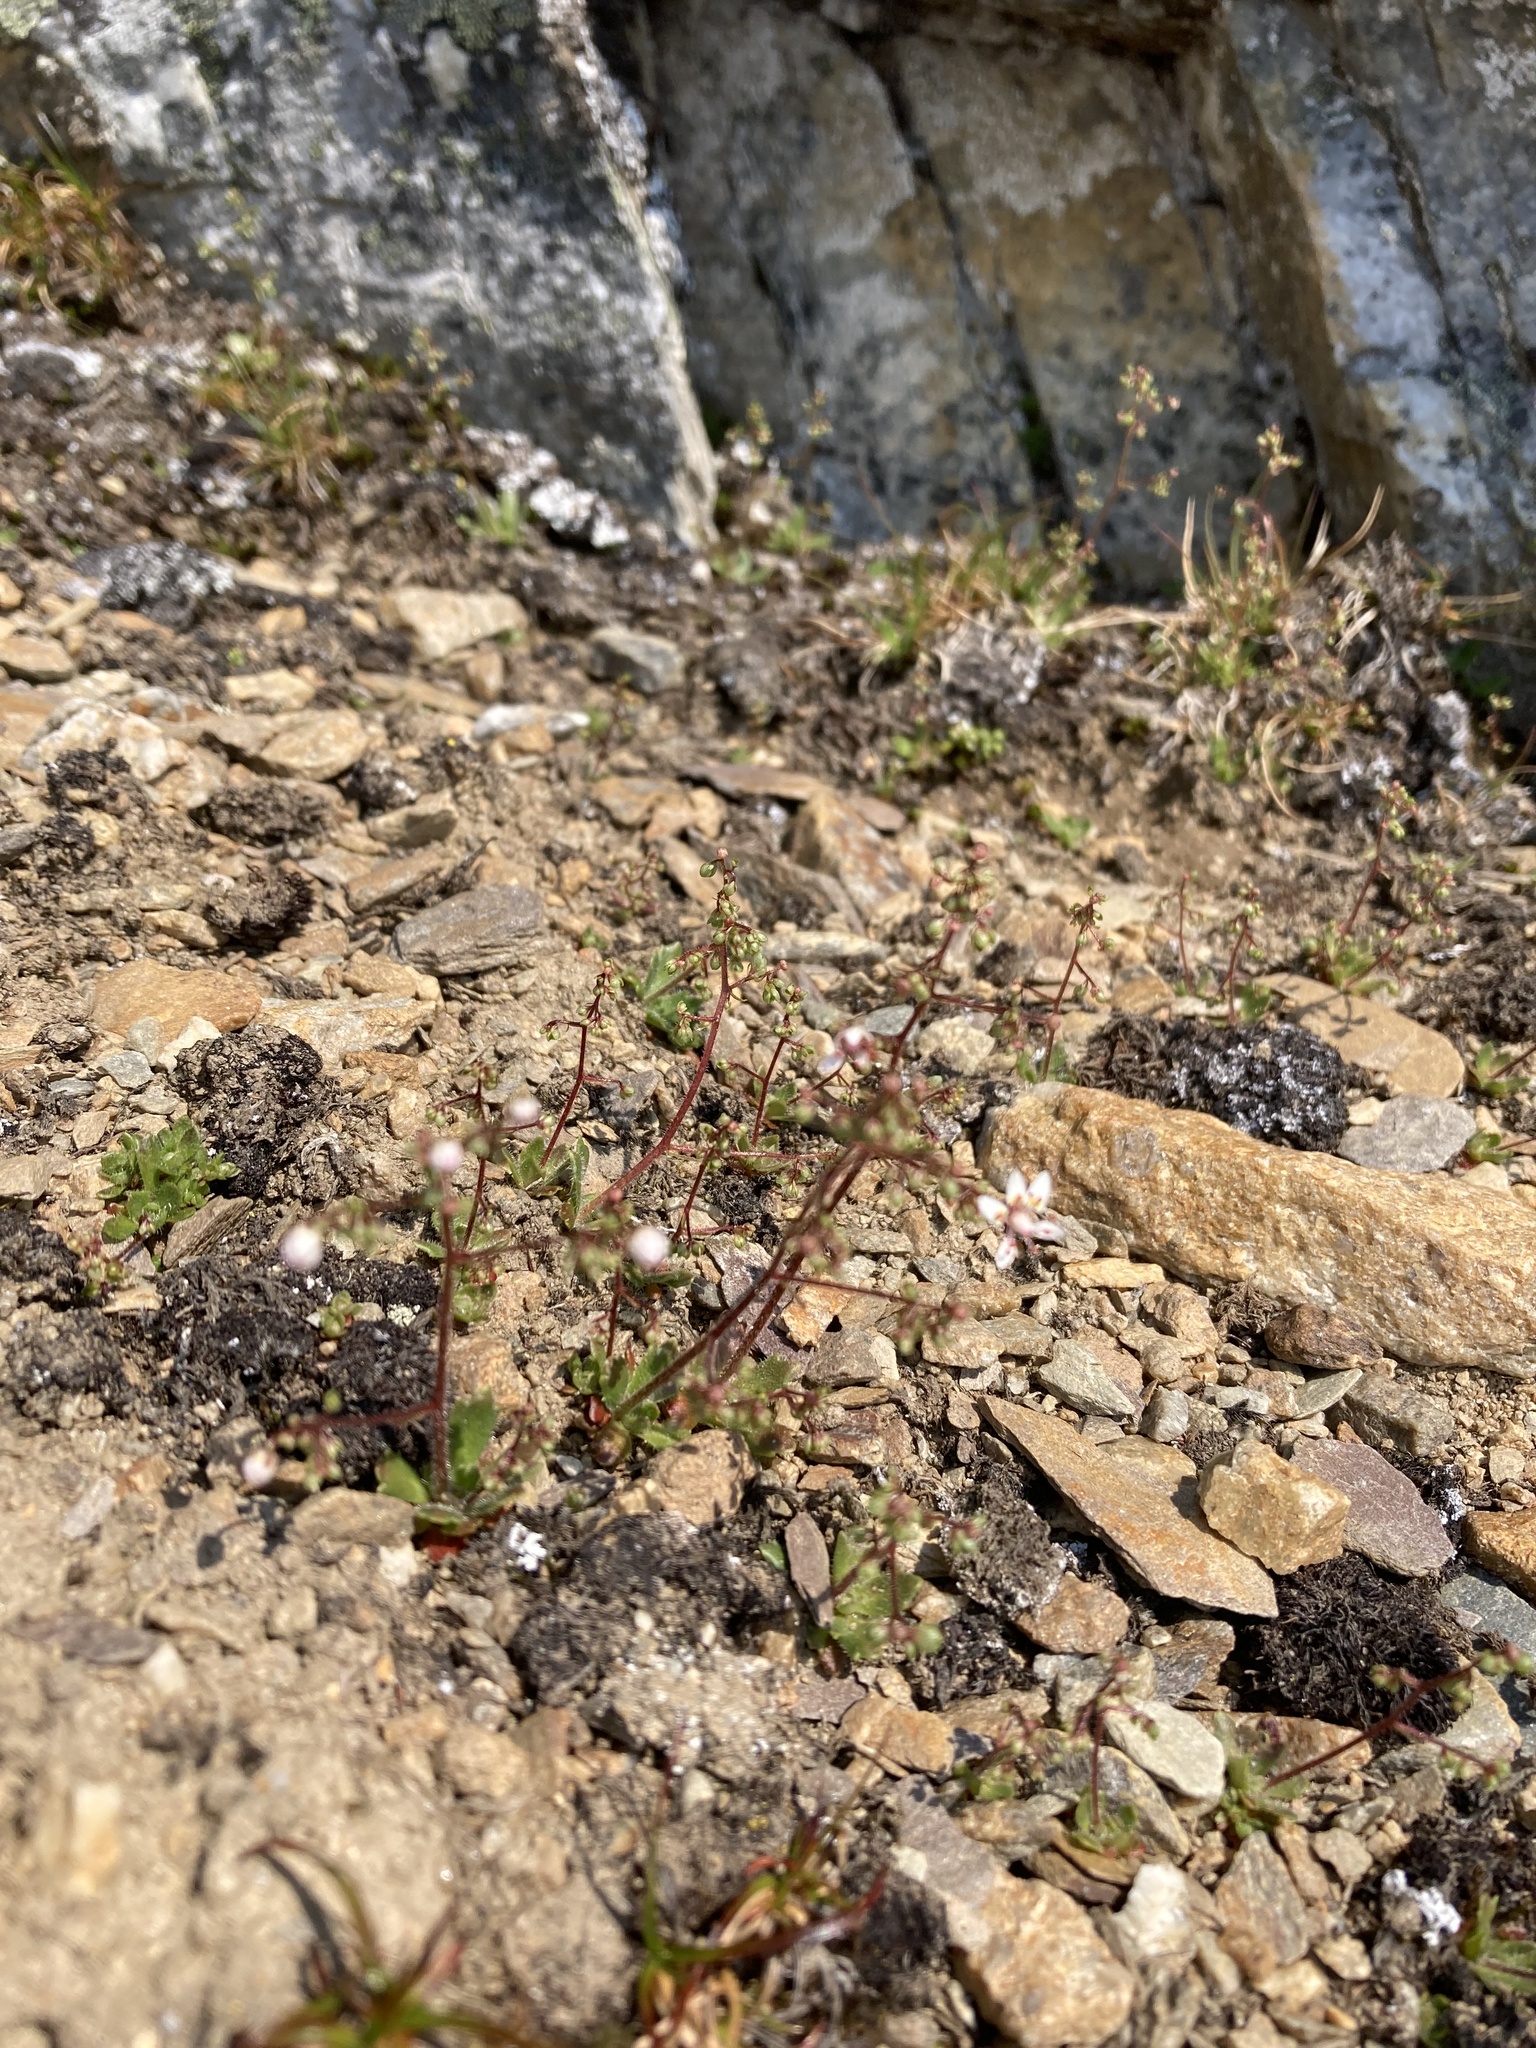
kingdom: Plantae
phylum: Tracheophyta
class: Magnoliopsida
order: Saxifragales
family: Saxifragaceae
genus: Micranthes
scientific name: Micranthes ferruginea
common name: Rusty saxifrage
